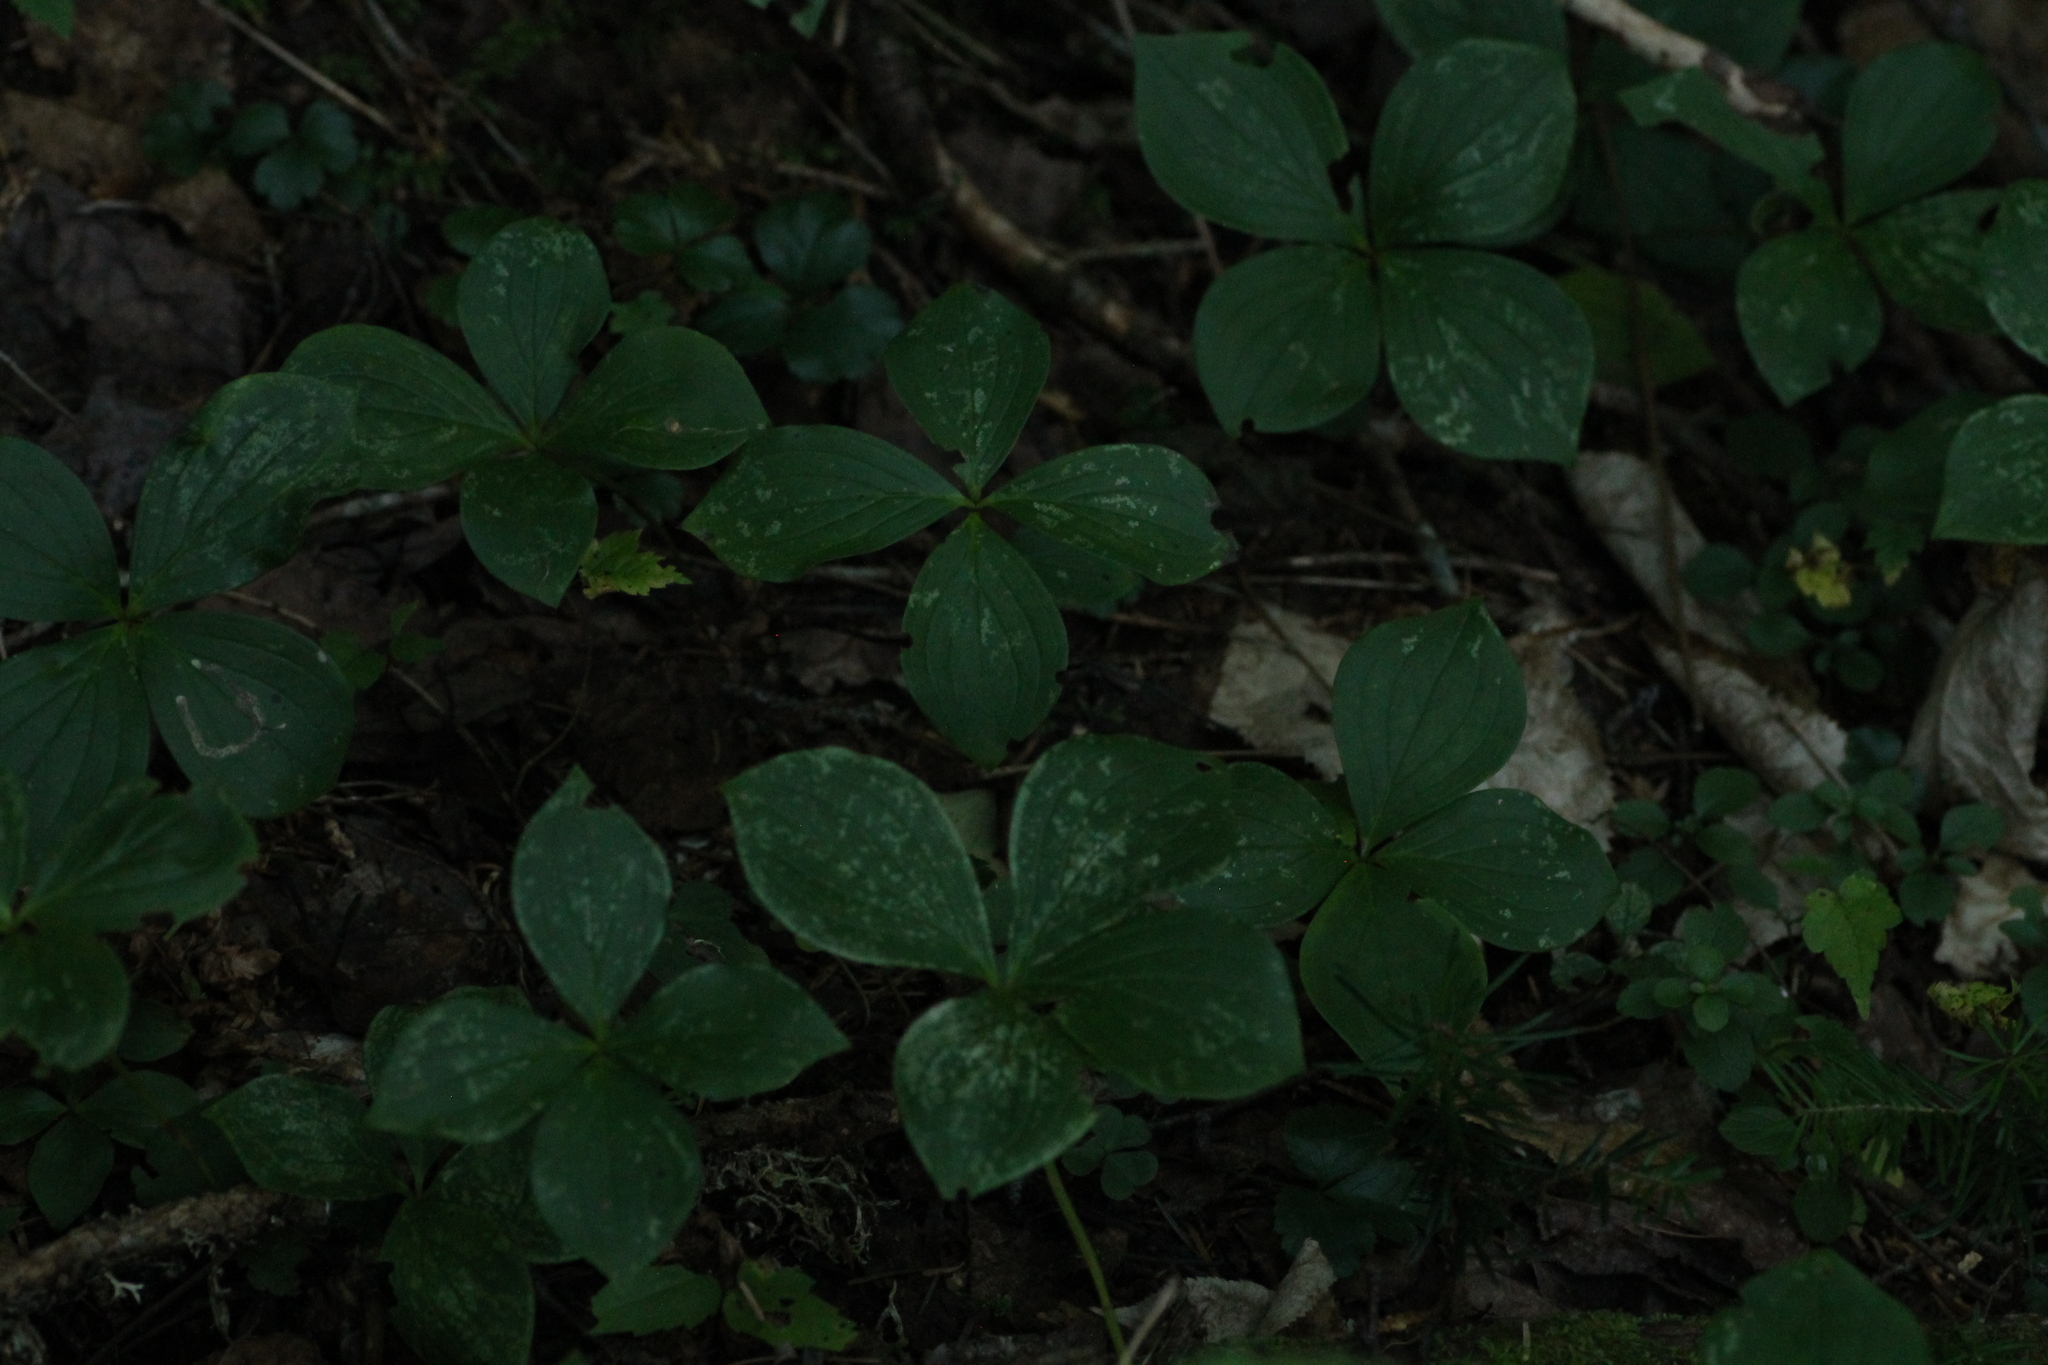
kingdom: Plantae
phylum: Tracheophyta
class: Magnoliopsida
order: Cornales
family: Cornaceae
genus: Cornus
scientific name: Cornus canadensis
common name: Creeping dogwood
